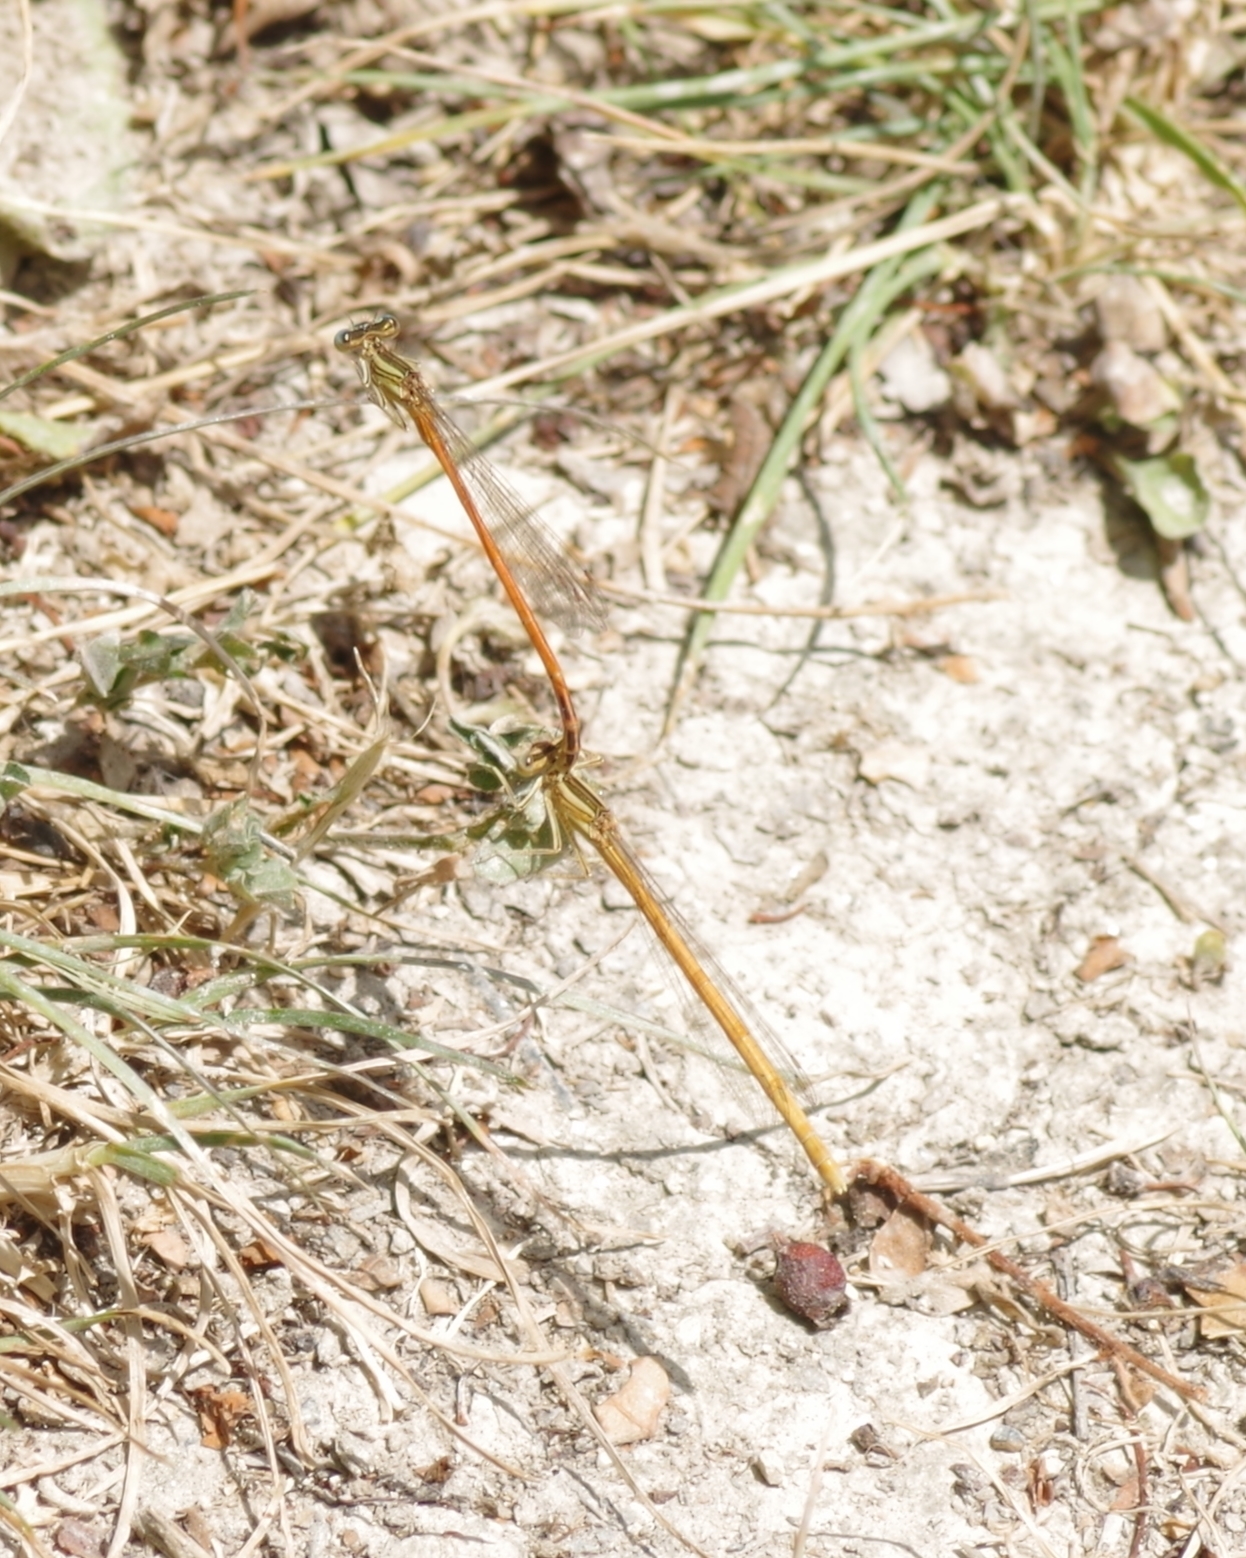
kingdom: Animalia
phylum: Arthropoda
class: Insecta
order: Odonata
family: Platycnemididae
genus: Platycnemis
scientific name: Platycnemis acutipennis
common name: Orange featherleg
